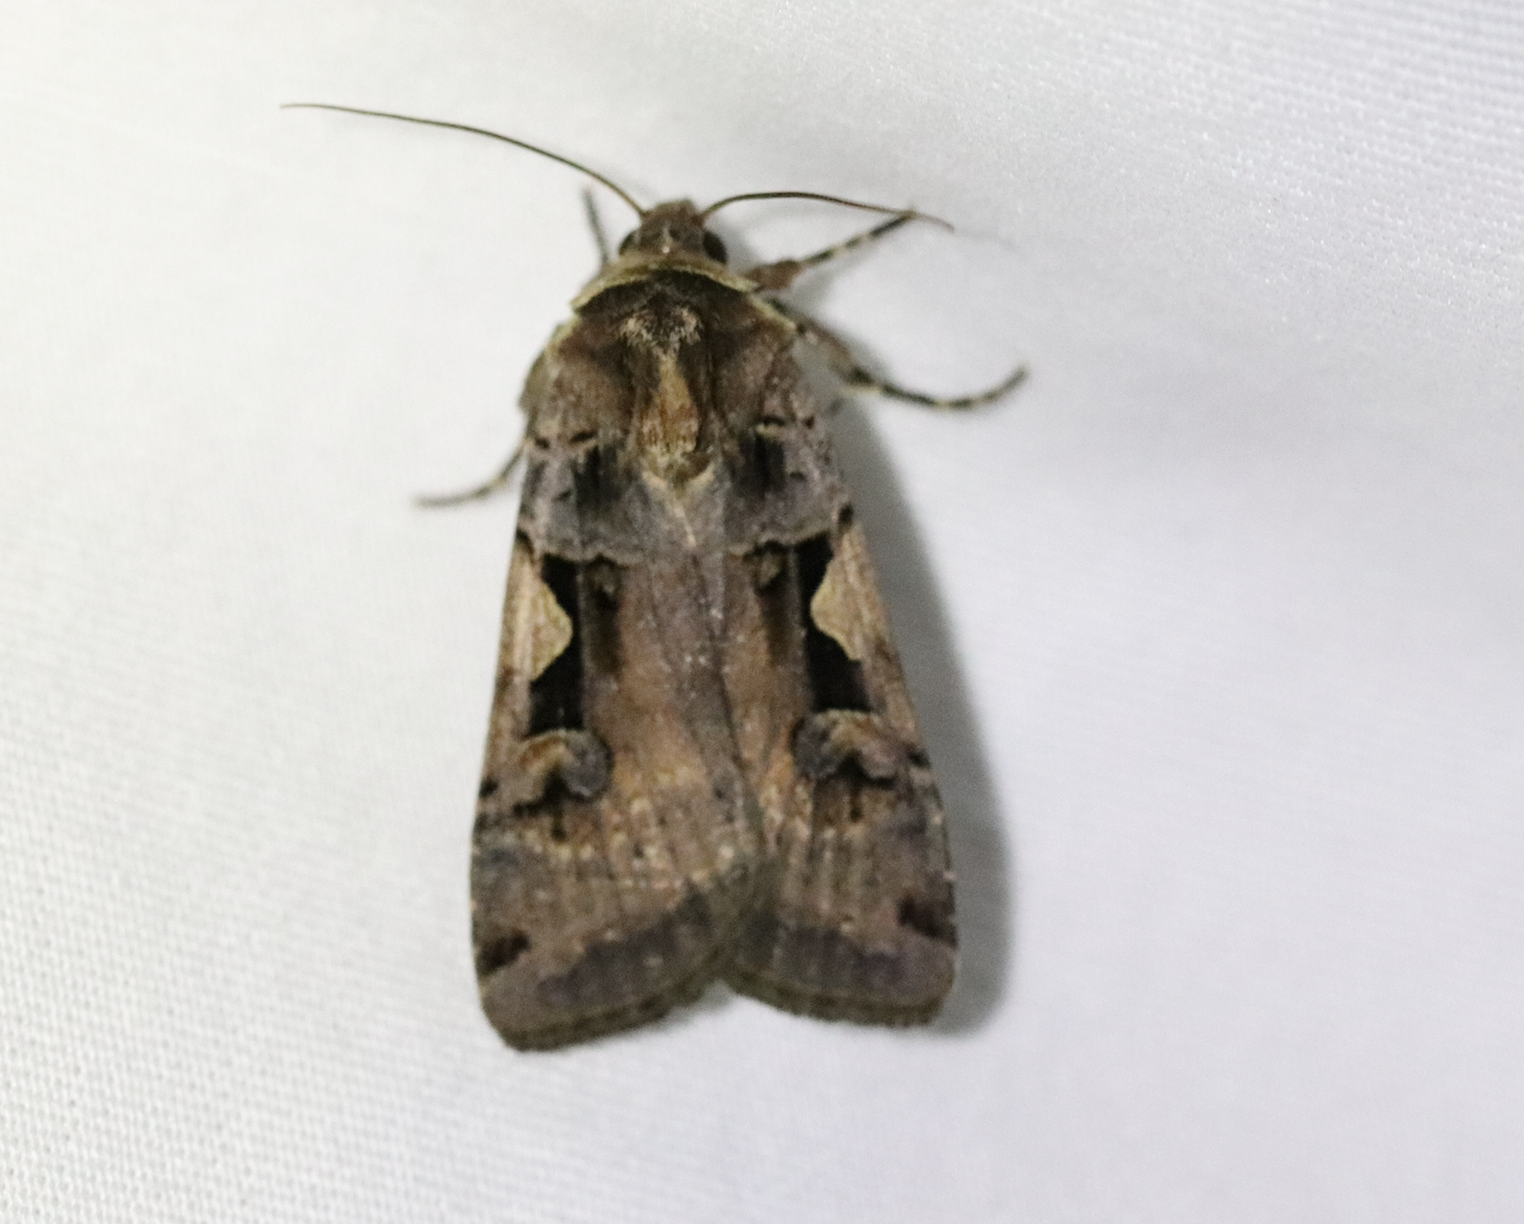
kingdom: Animalia
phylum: Arthropoda
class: Insecta
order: Lepidoptera
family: Noctuidae
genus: Xestia
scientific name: Xestia c-nigrum
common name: Setaceous hebrew character
